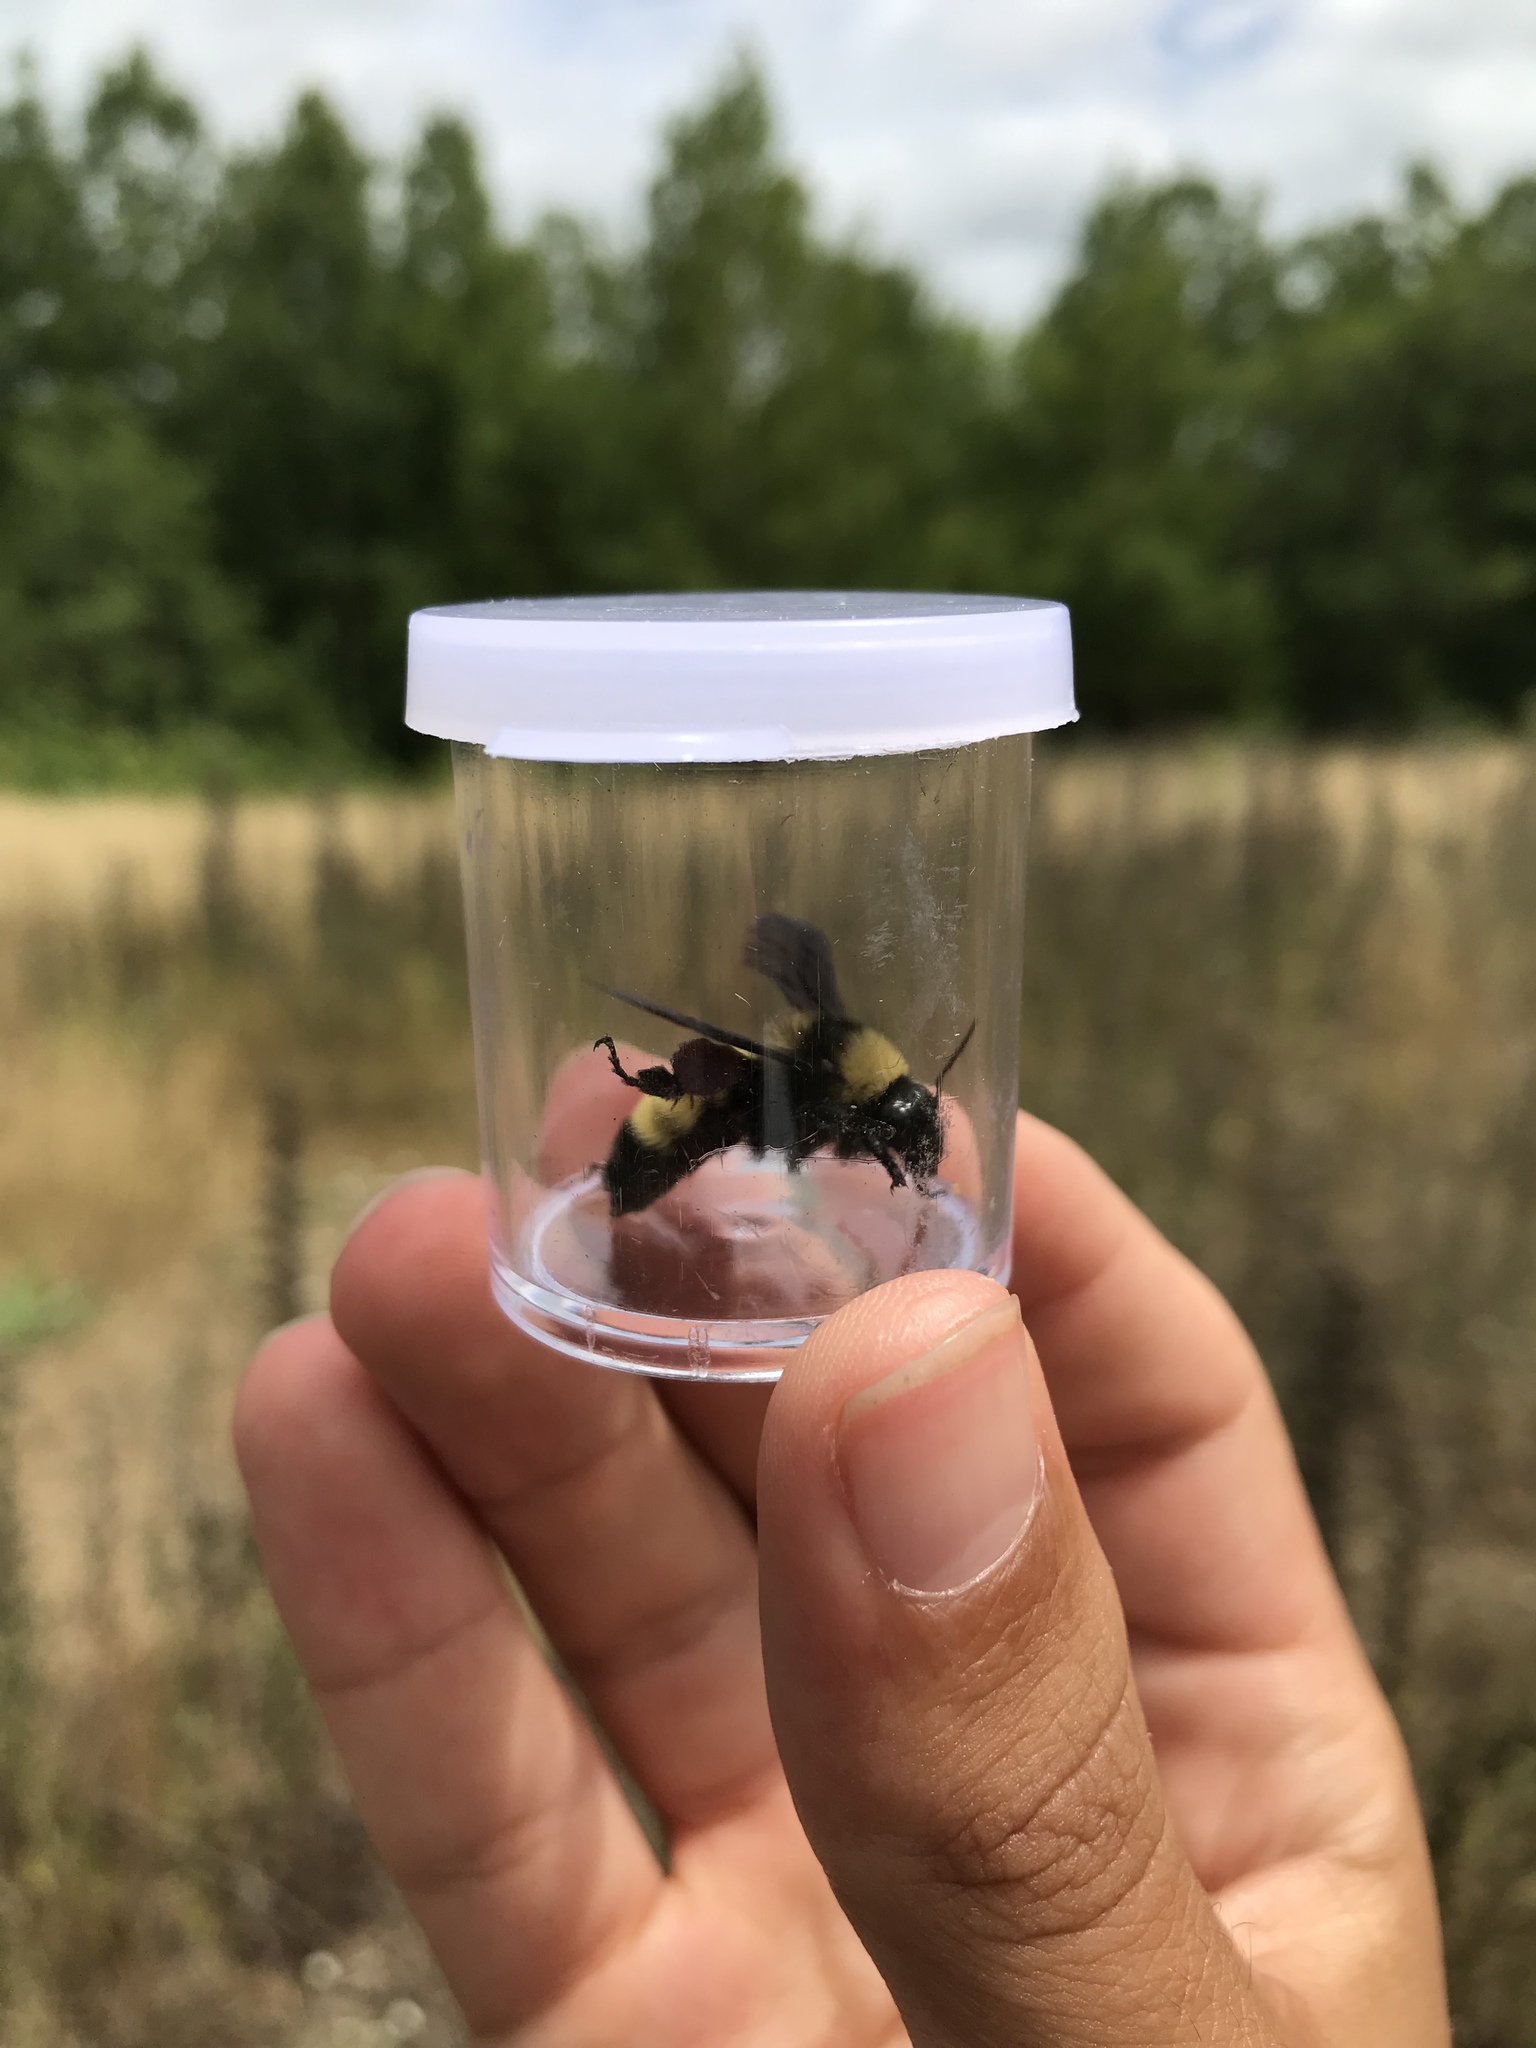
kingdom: Animalia
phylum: Arthropoda
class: Insecta
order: Hymenoptera
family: Apidae
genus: Bombus
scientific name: Bombus pensylvanicus
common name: Bumble bee
